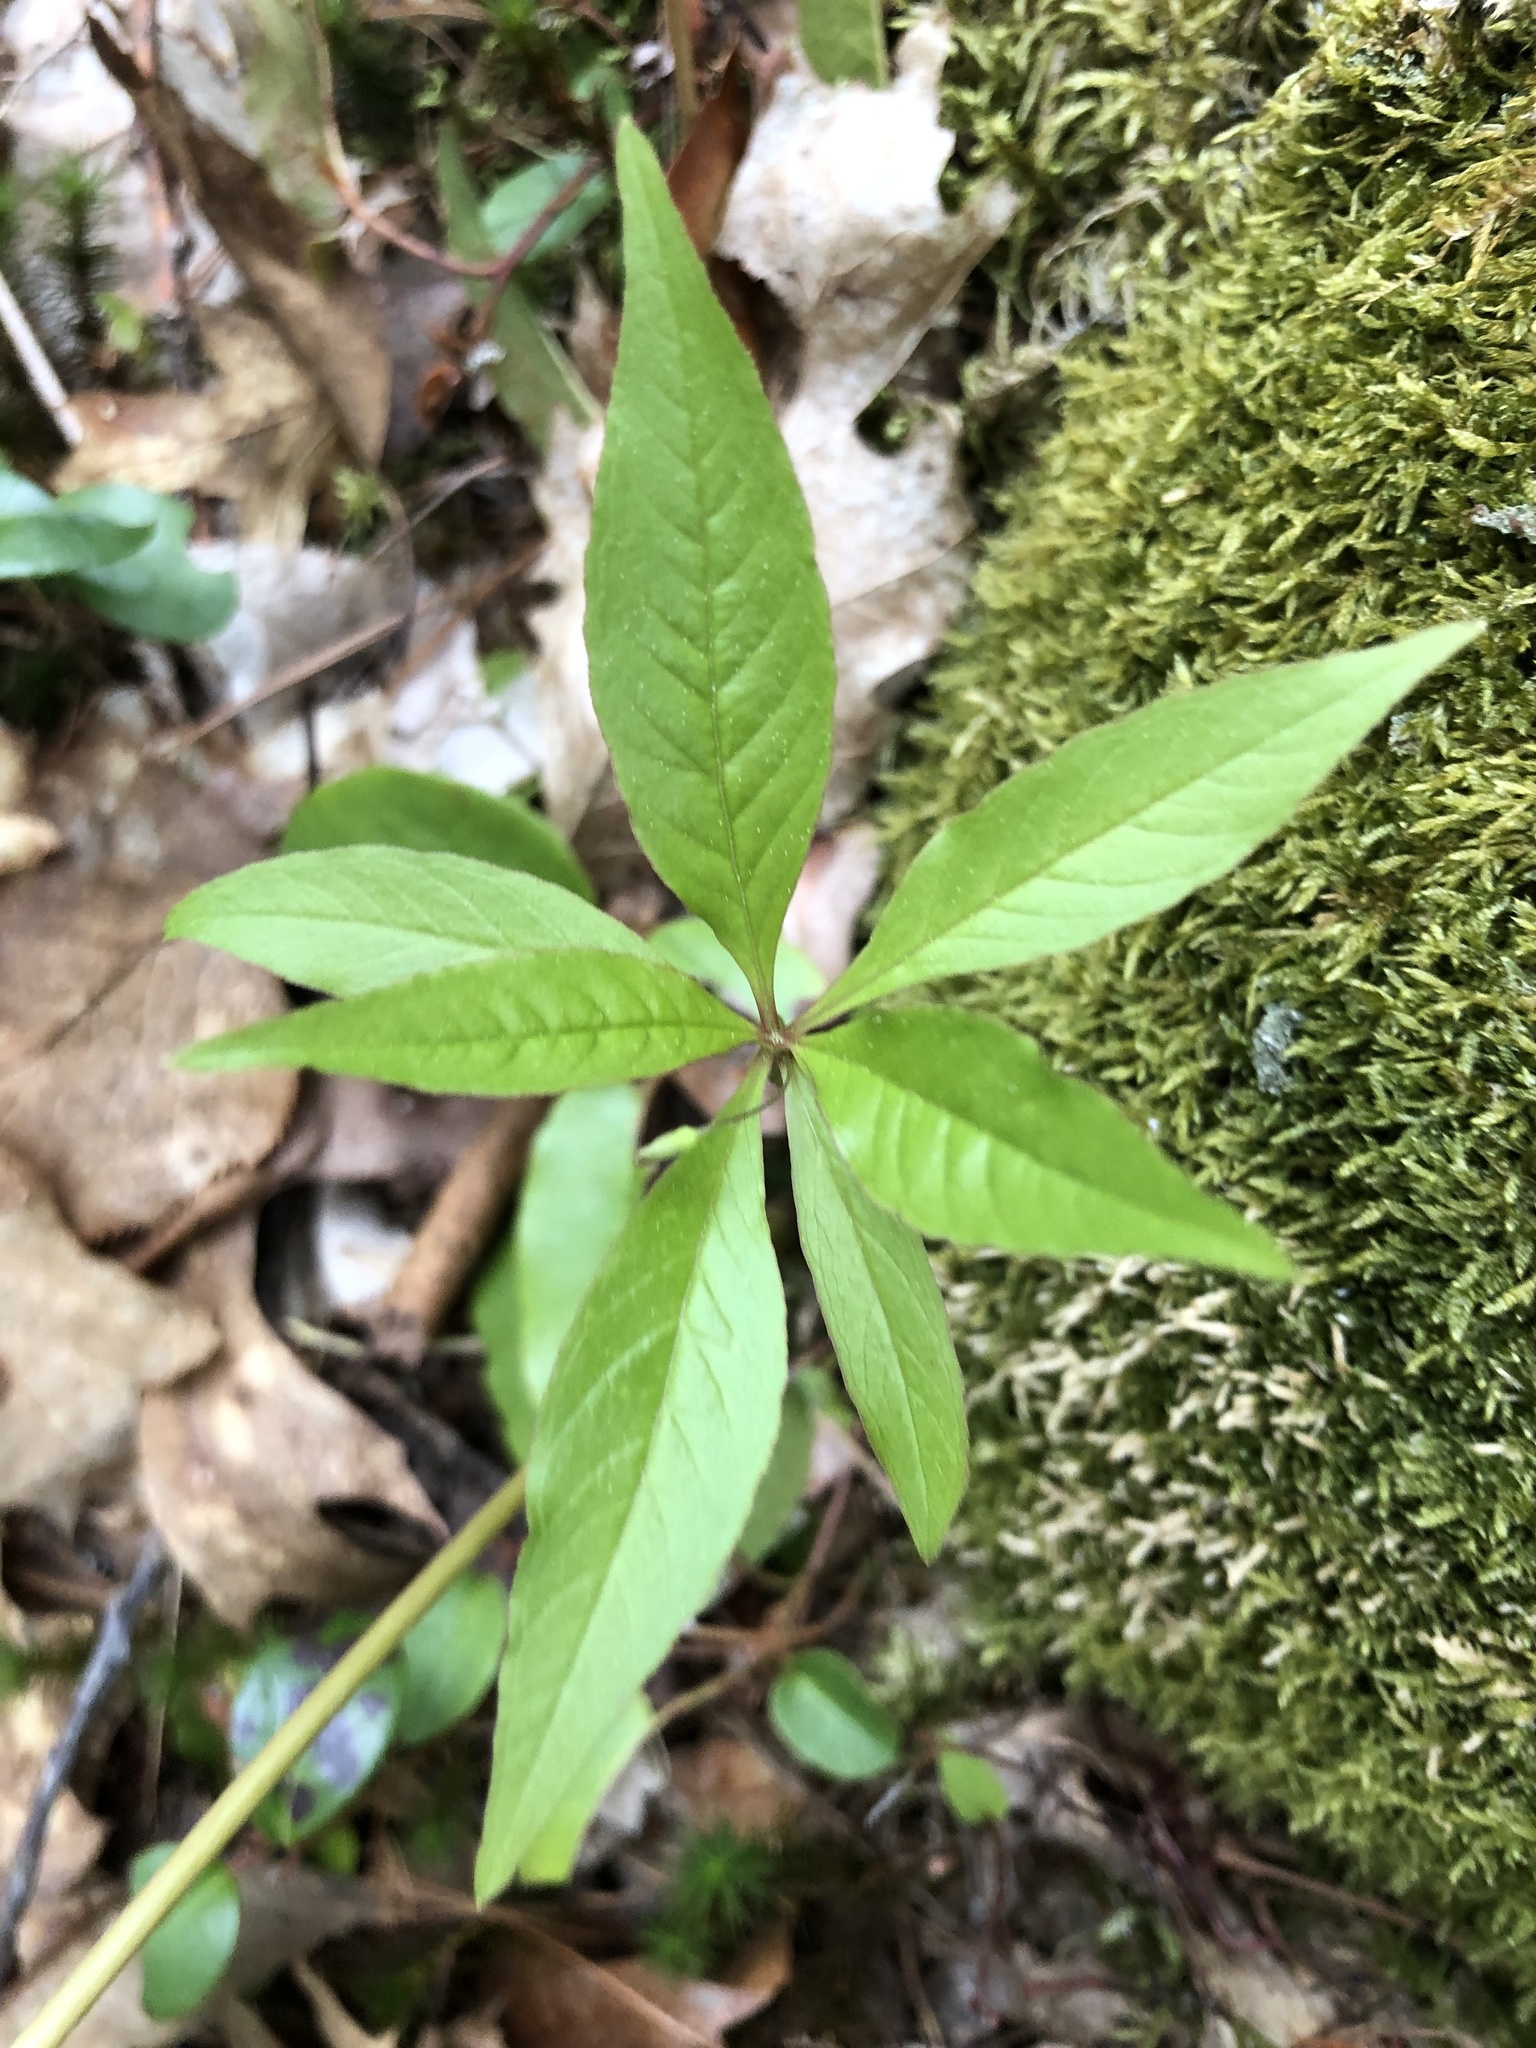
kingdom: Plantae
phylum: Tracheophyta
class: Magnoliopsida
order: Ericales
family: Primulaceae
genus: Lysimachia
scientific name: Lysimachia borealis
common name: American starflower
